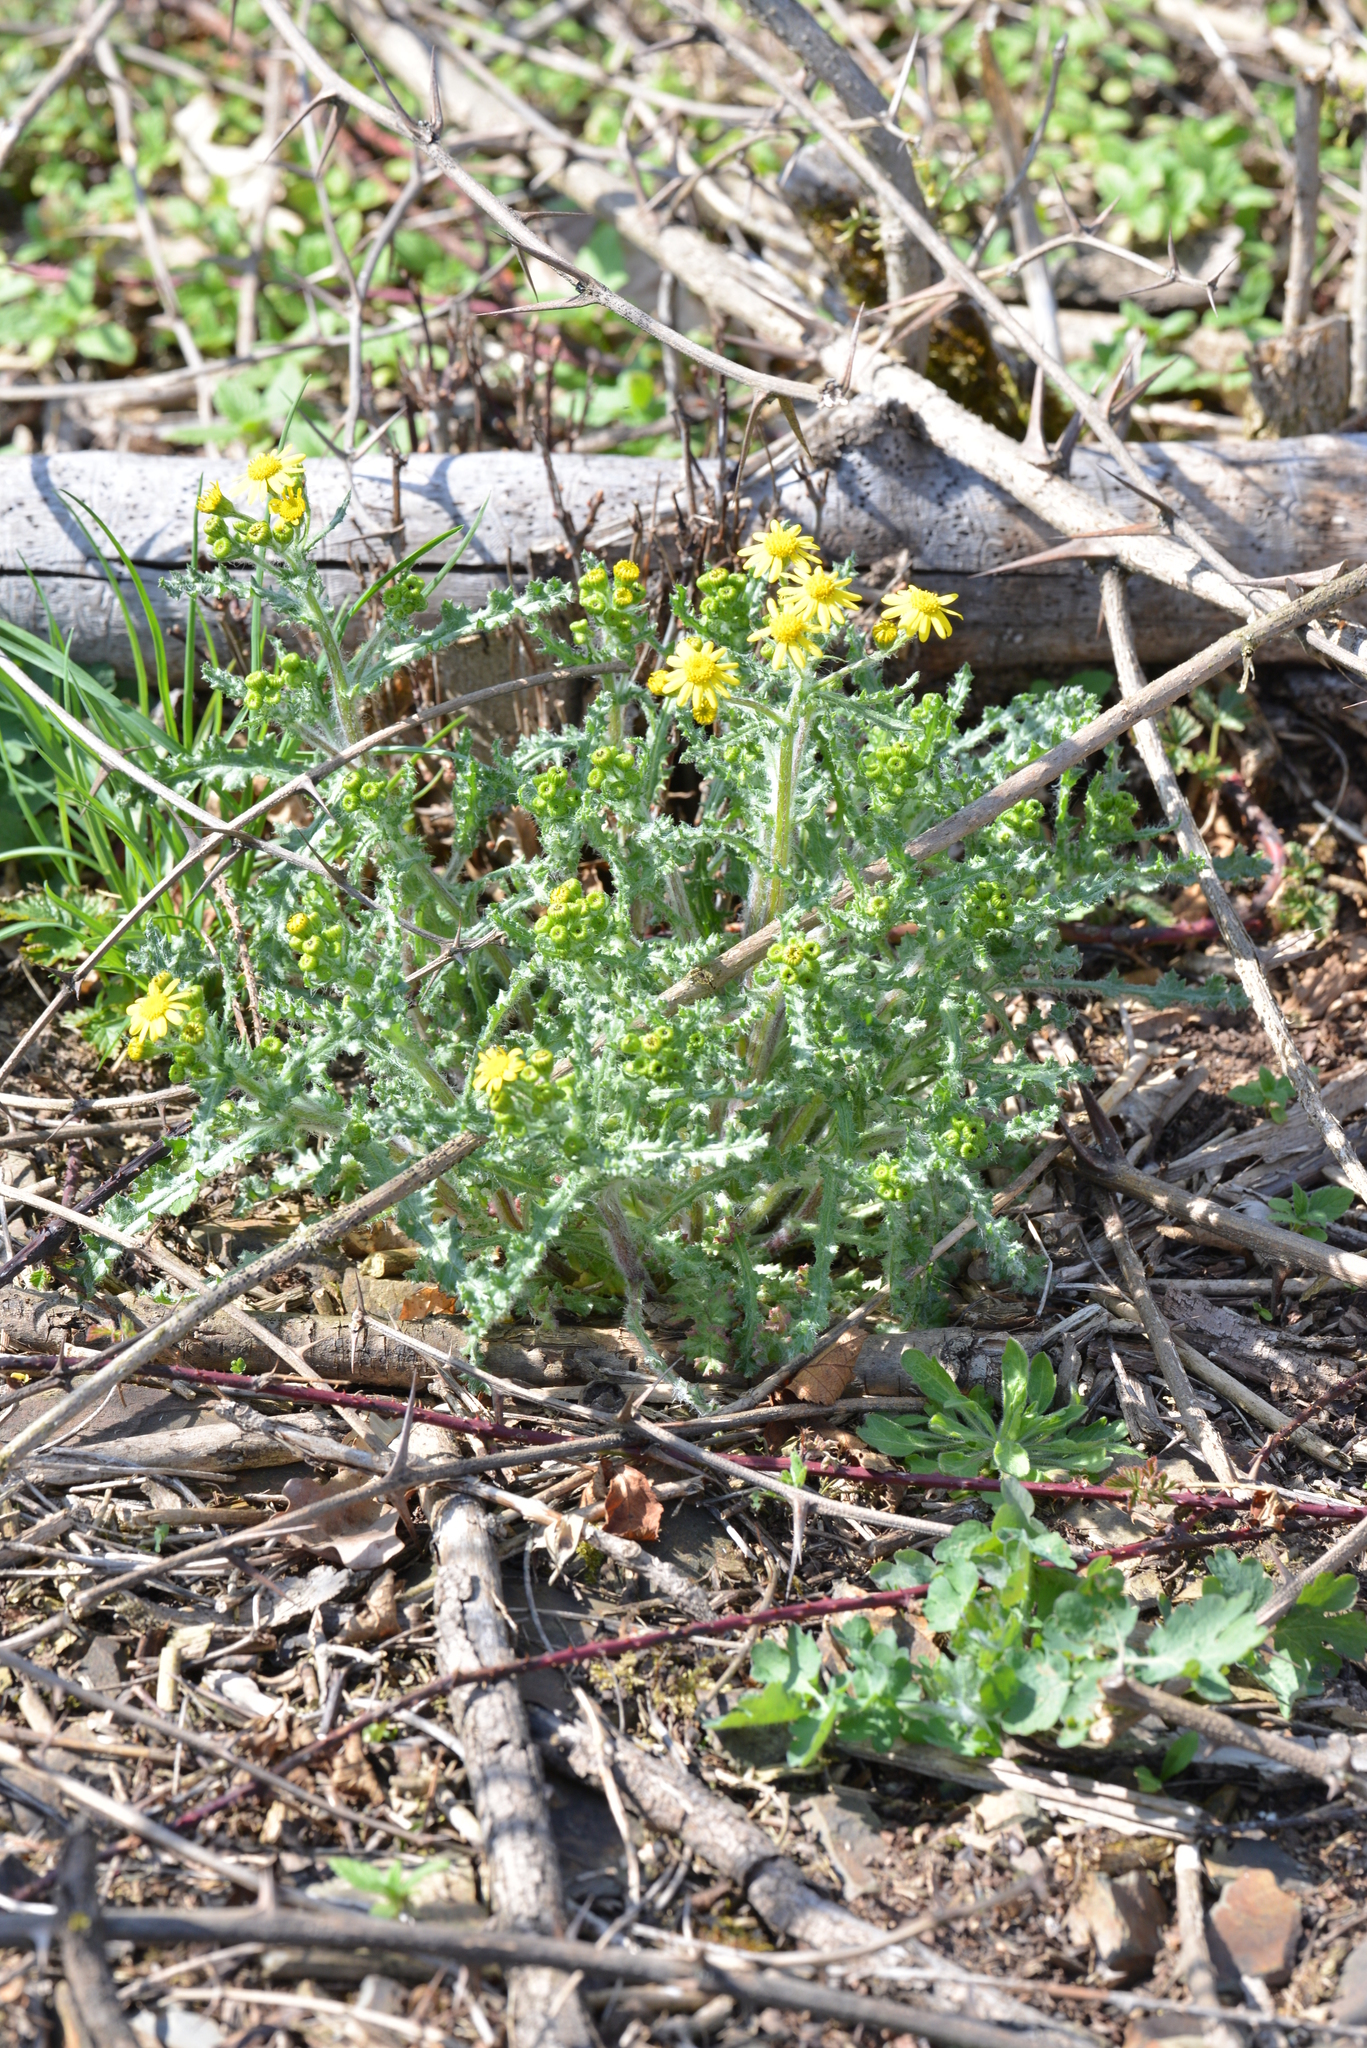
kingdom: Plantae
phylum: Tracheophyta
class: Magnoliopsida
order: Asterales
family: Asteraceae
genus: Senecio
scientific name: Senecio vernalis
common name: Eastern groundsel
